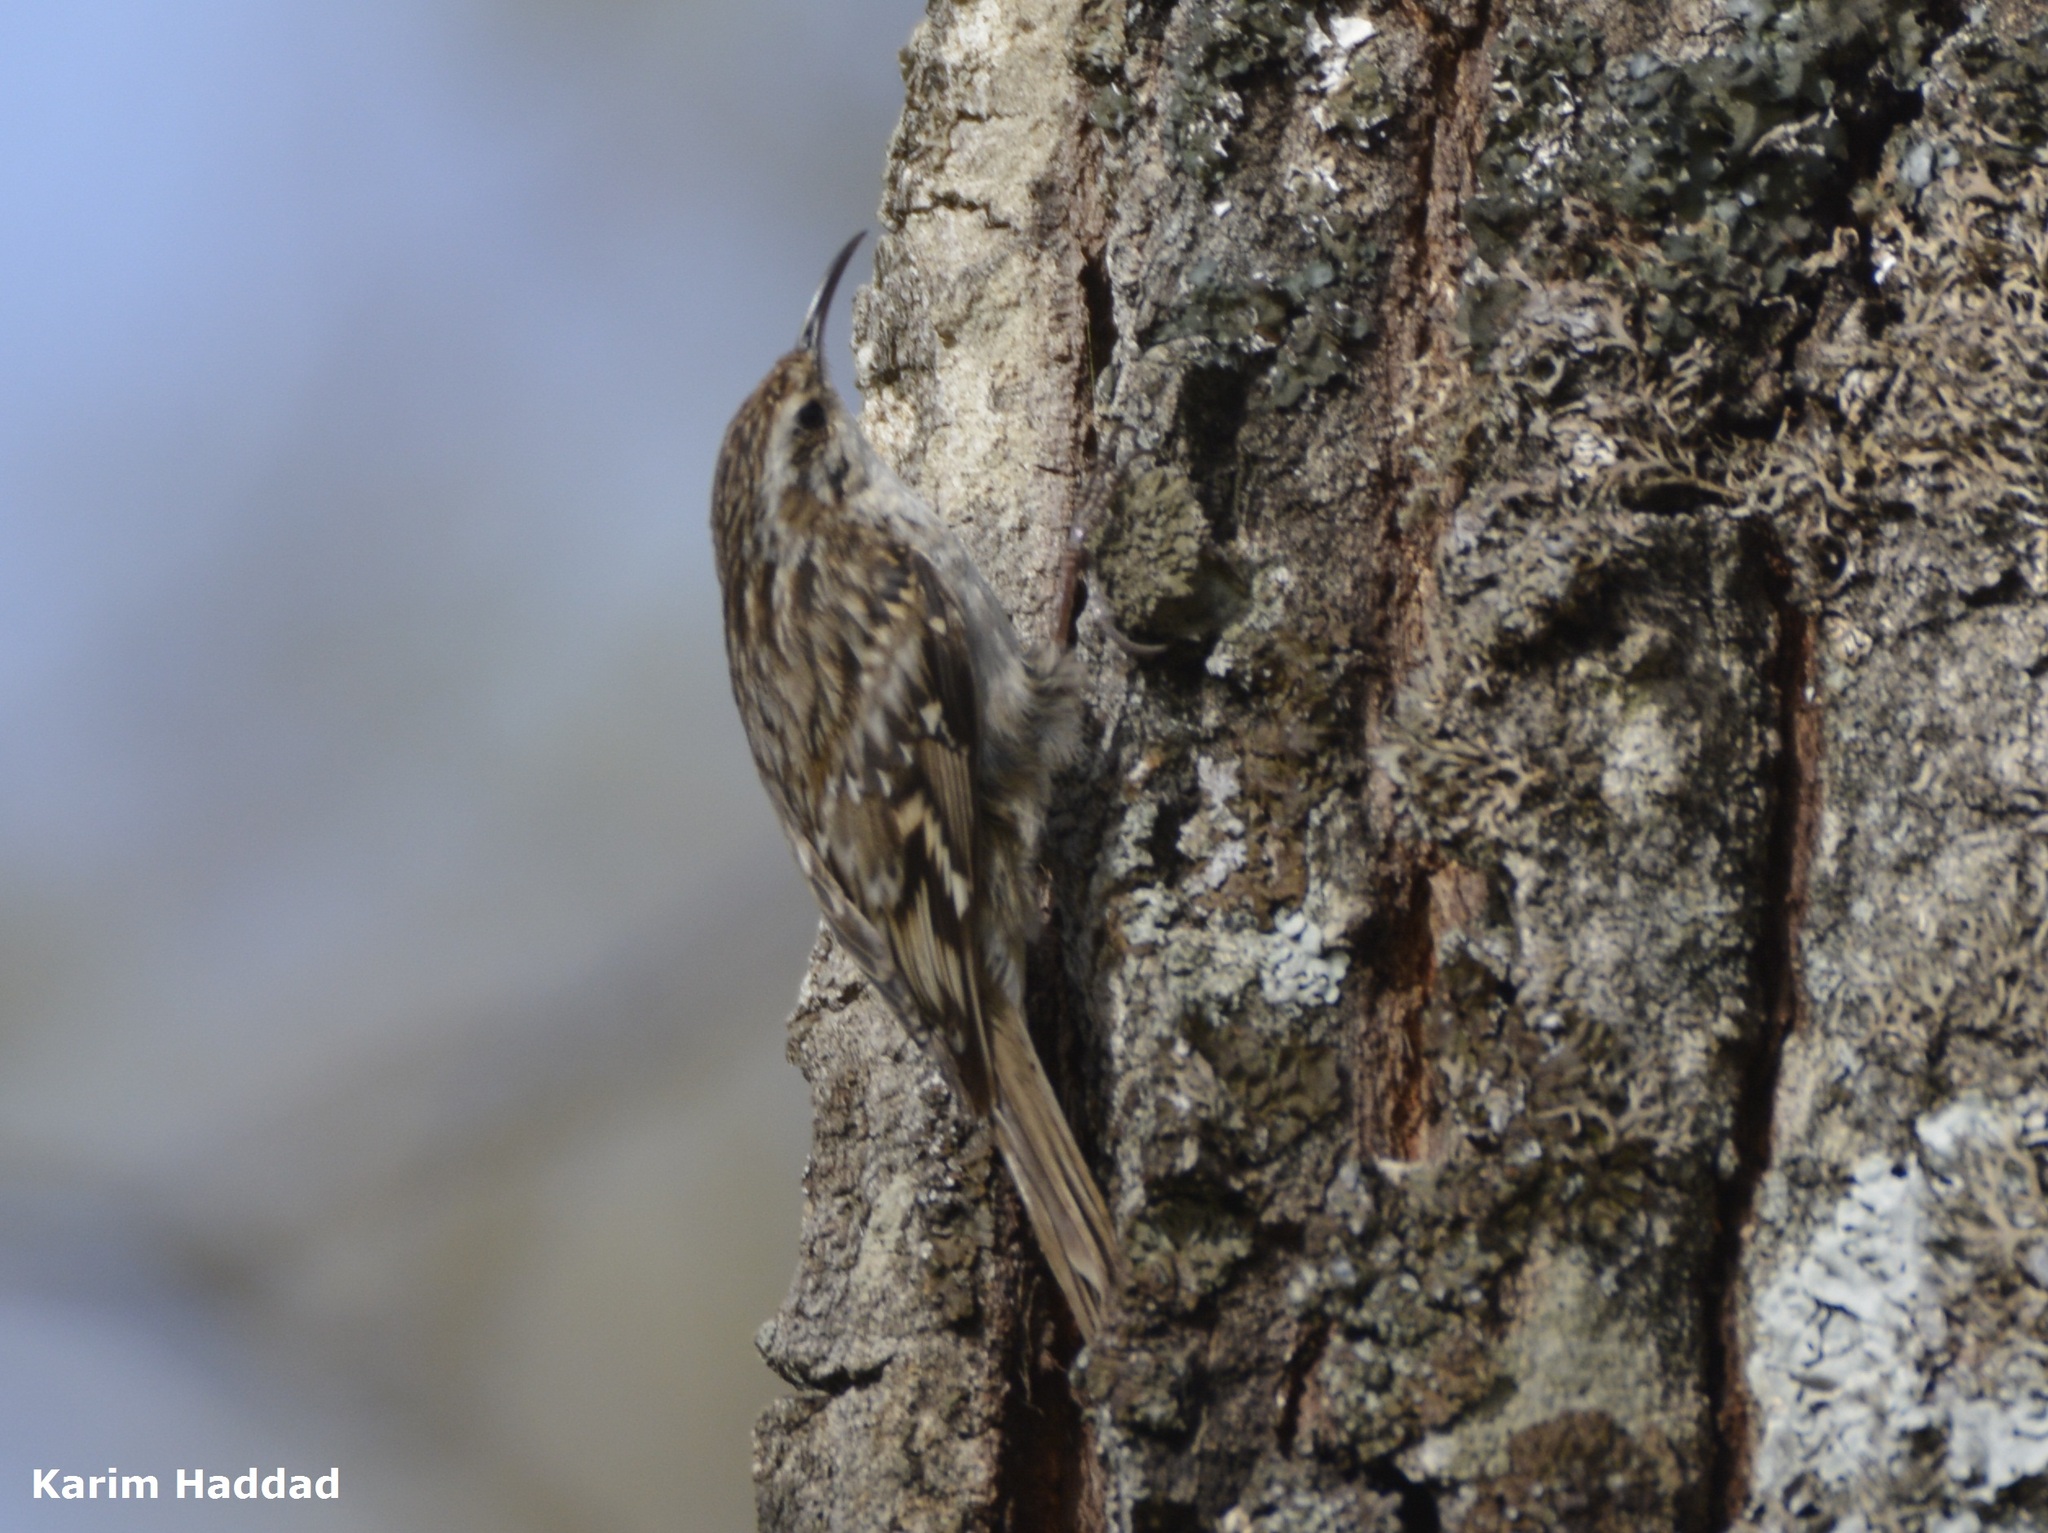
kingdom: Animalia
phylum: Chordata
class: Aves
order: Passeriformes
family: Certhiidae
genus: Certhia
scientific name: Certhia brachydactyla
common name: Short-toed treecreeper
